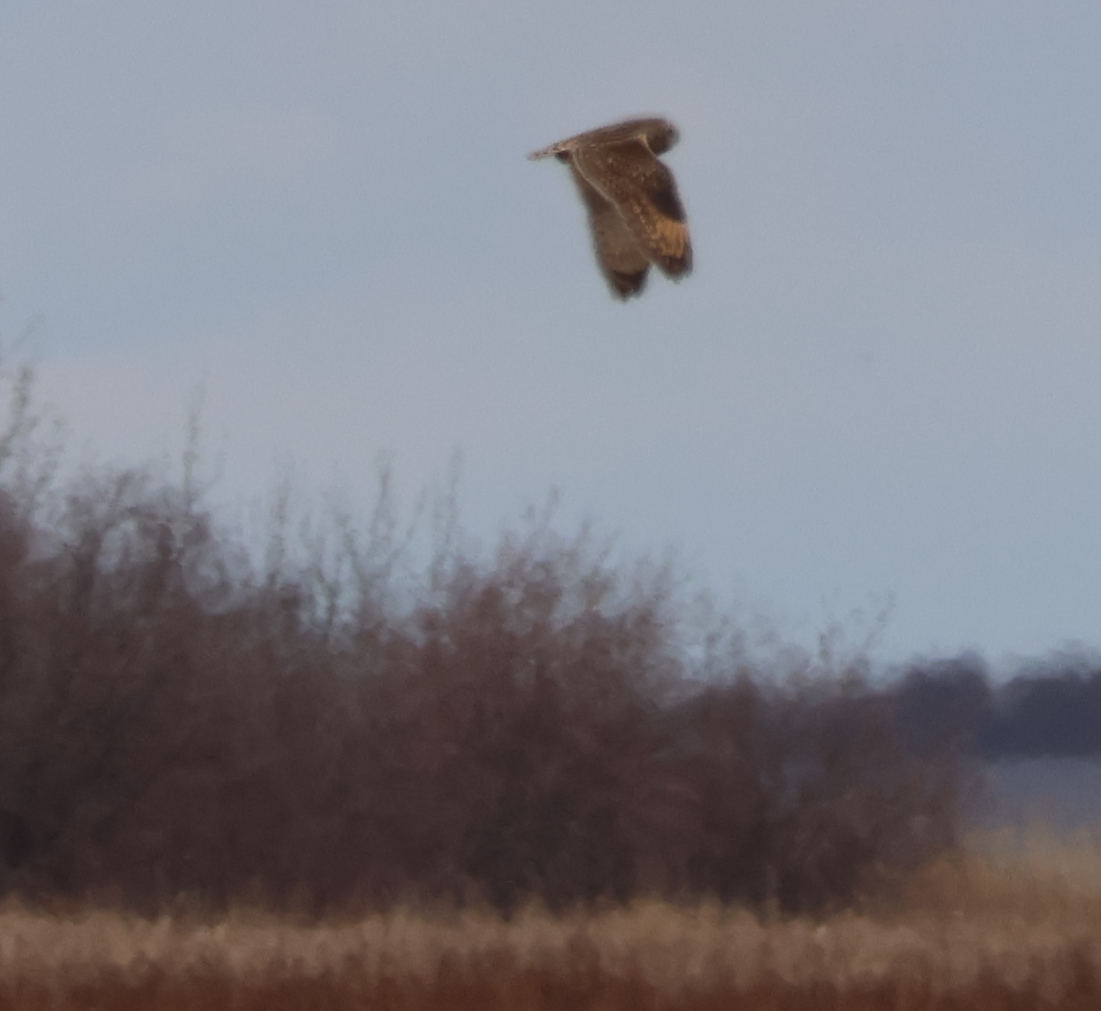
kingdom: Animalia
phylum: Chordata
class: Aves
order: Strigiformes
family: Strigidae
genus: Asio
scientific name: Asio flammeus
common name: Short-eared owl
